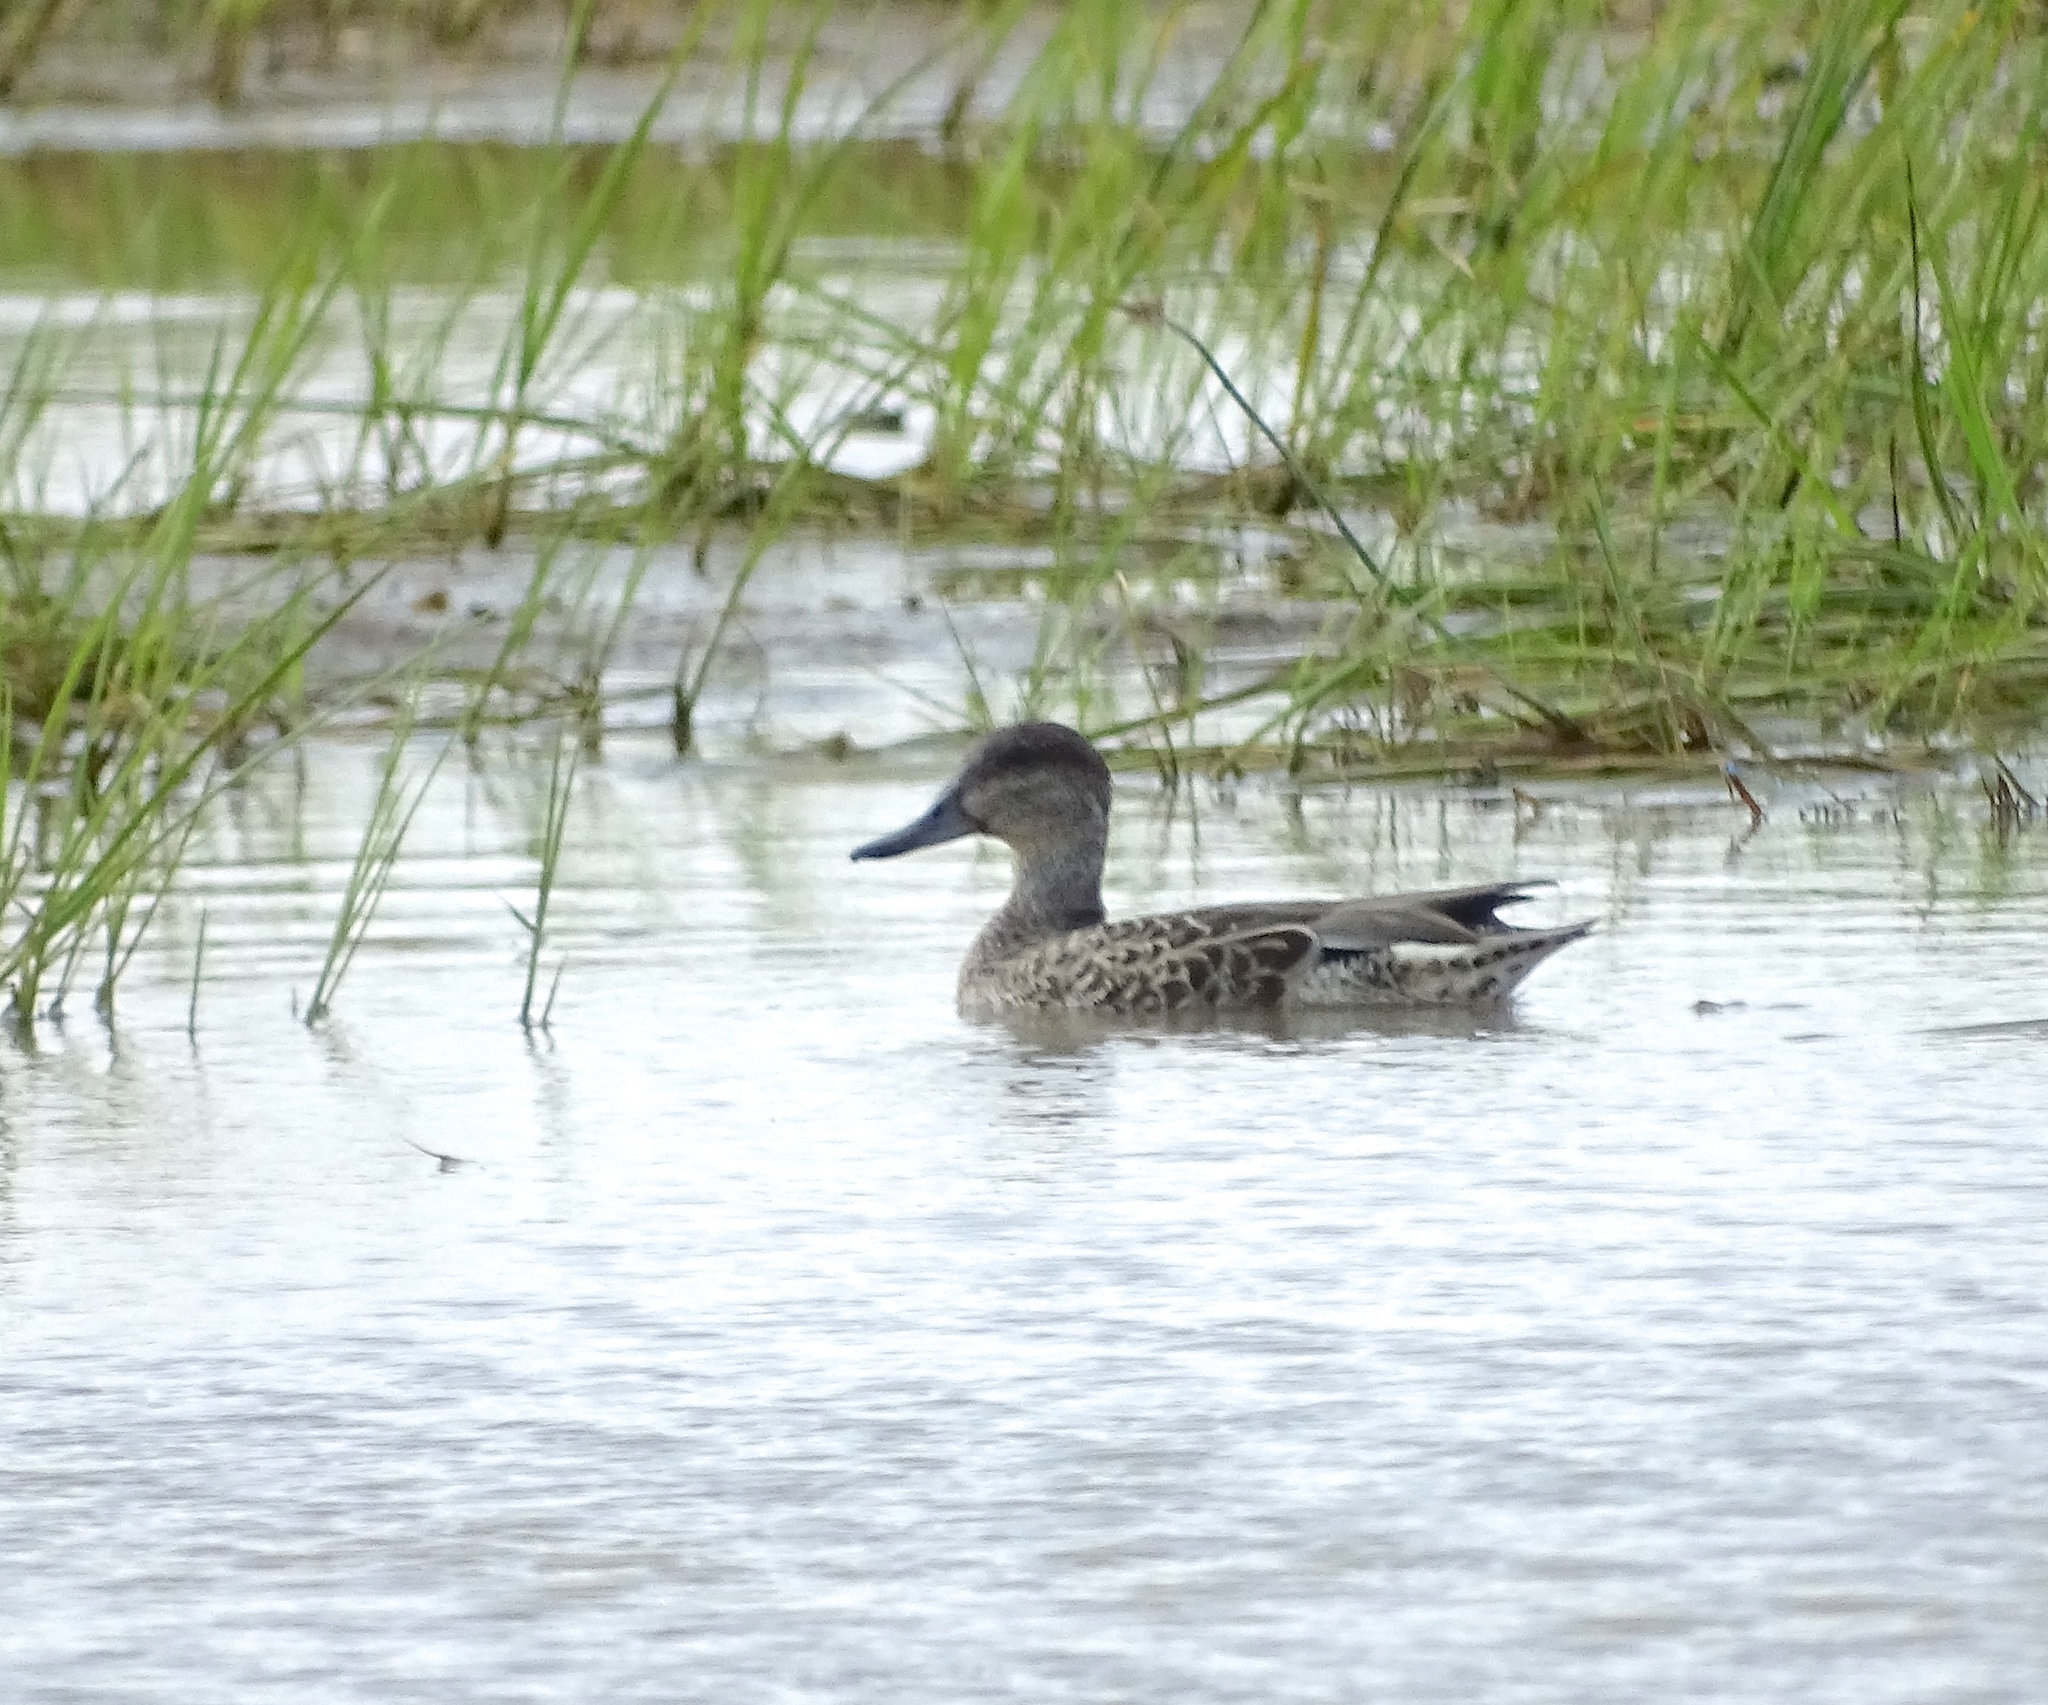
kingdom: Animalia
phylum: Chordata
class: Aves
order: Anseriformes
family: Anatidae
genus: Spatula
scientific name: Spatula discors
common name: Blue-winged teal
